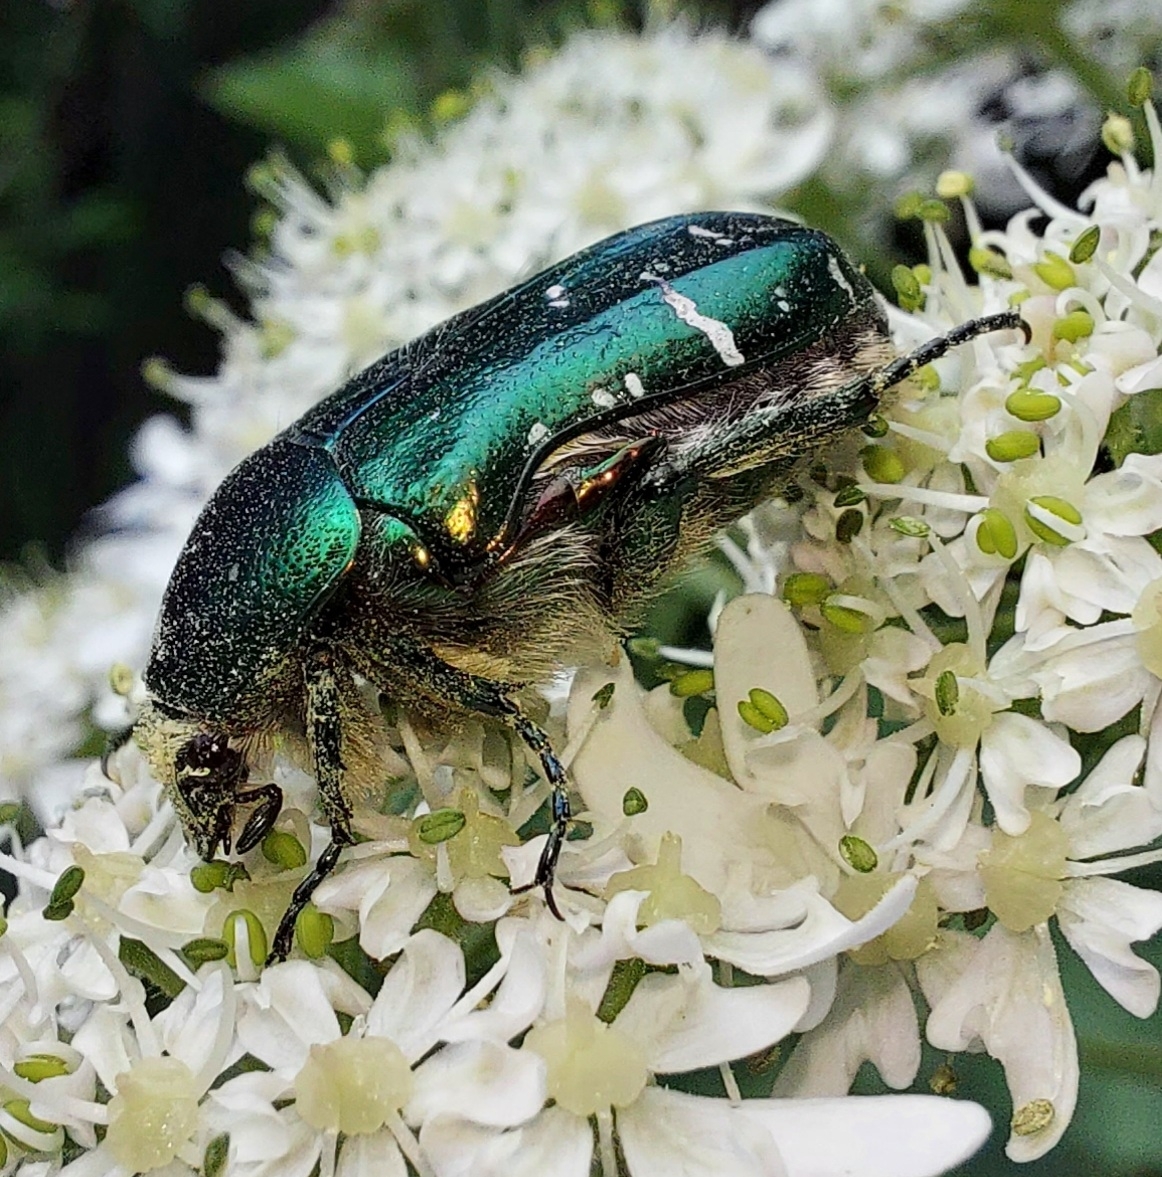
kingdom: Animalia
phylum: Arthropoda
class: Insecta
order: Coleoptera
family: Scarabaeidae
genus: Cetonia
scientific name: Cetonia aurata
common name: Rose chafer
